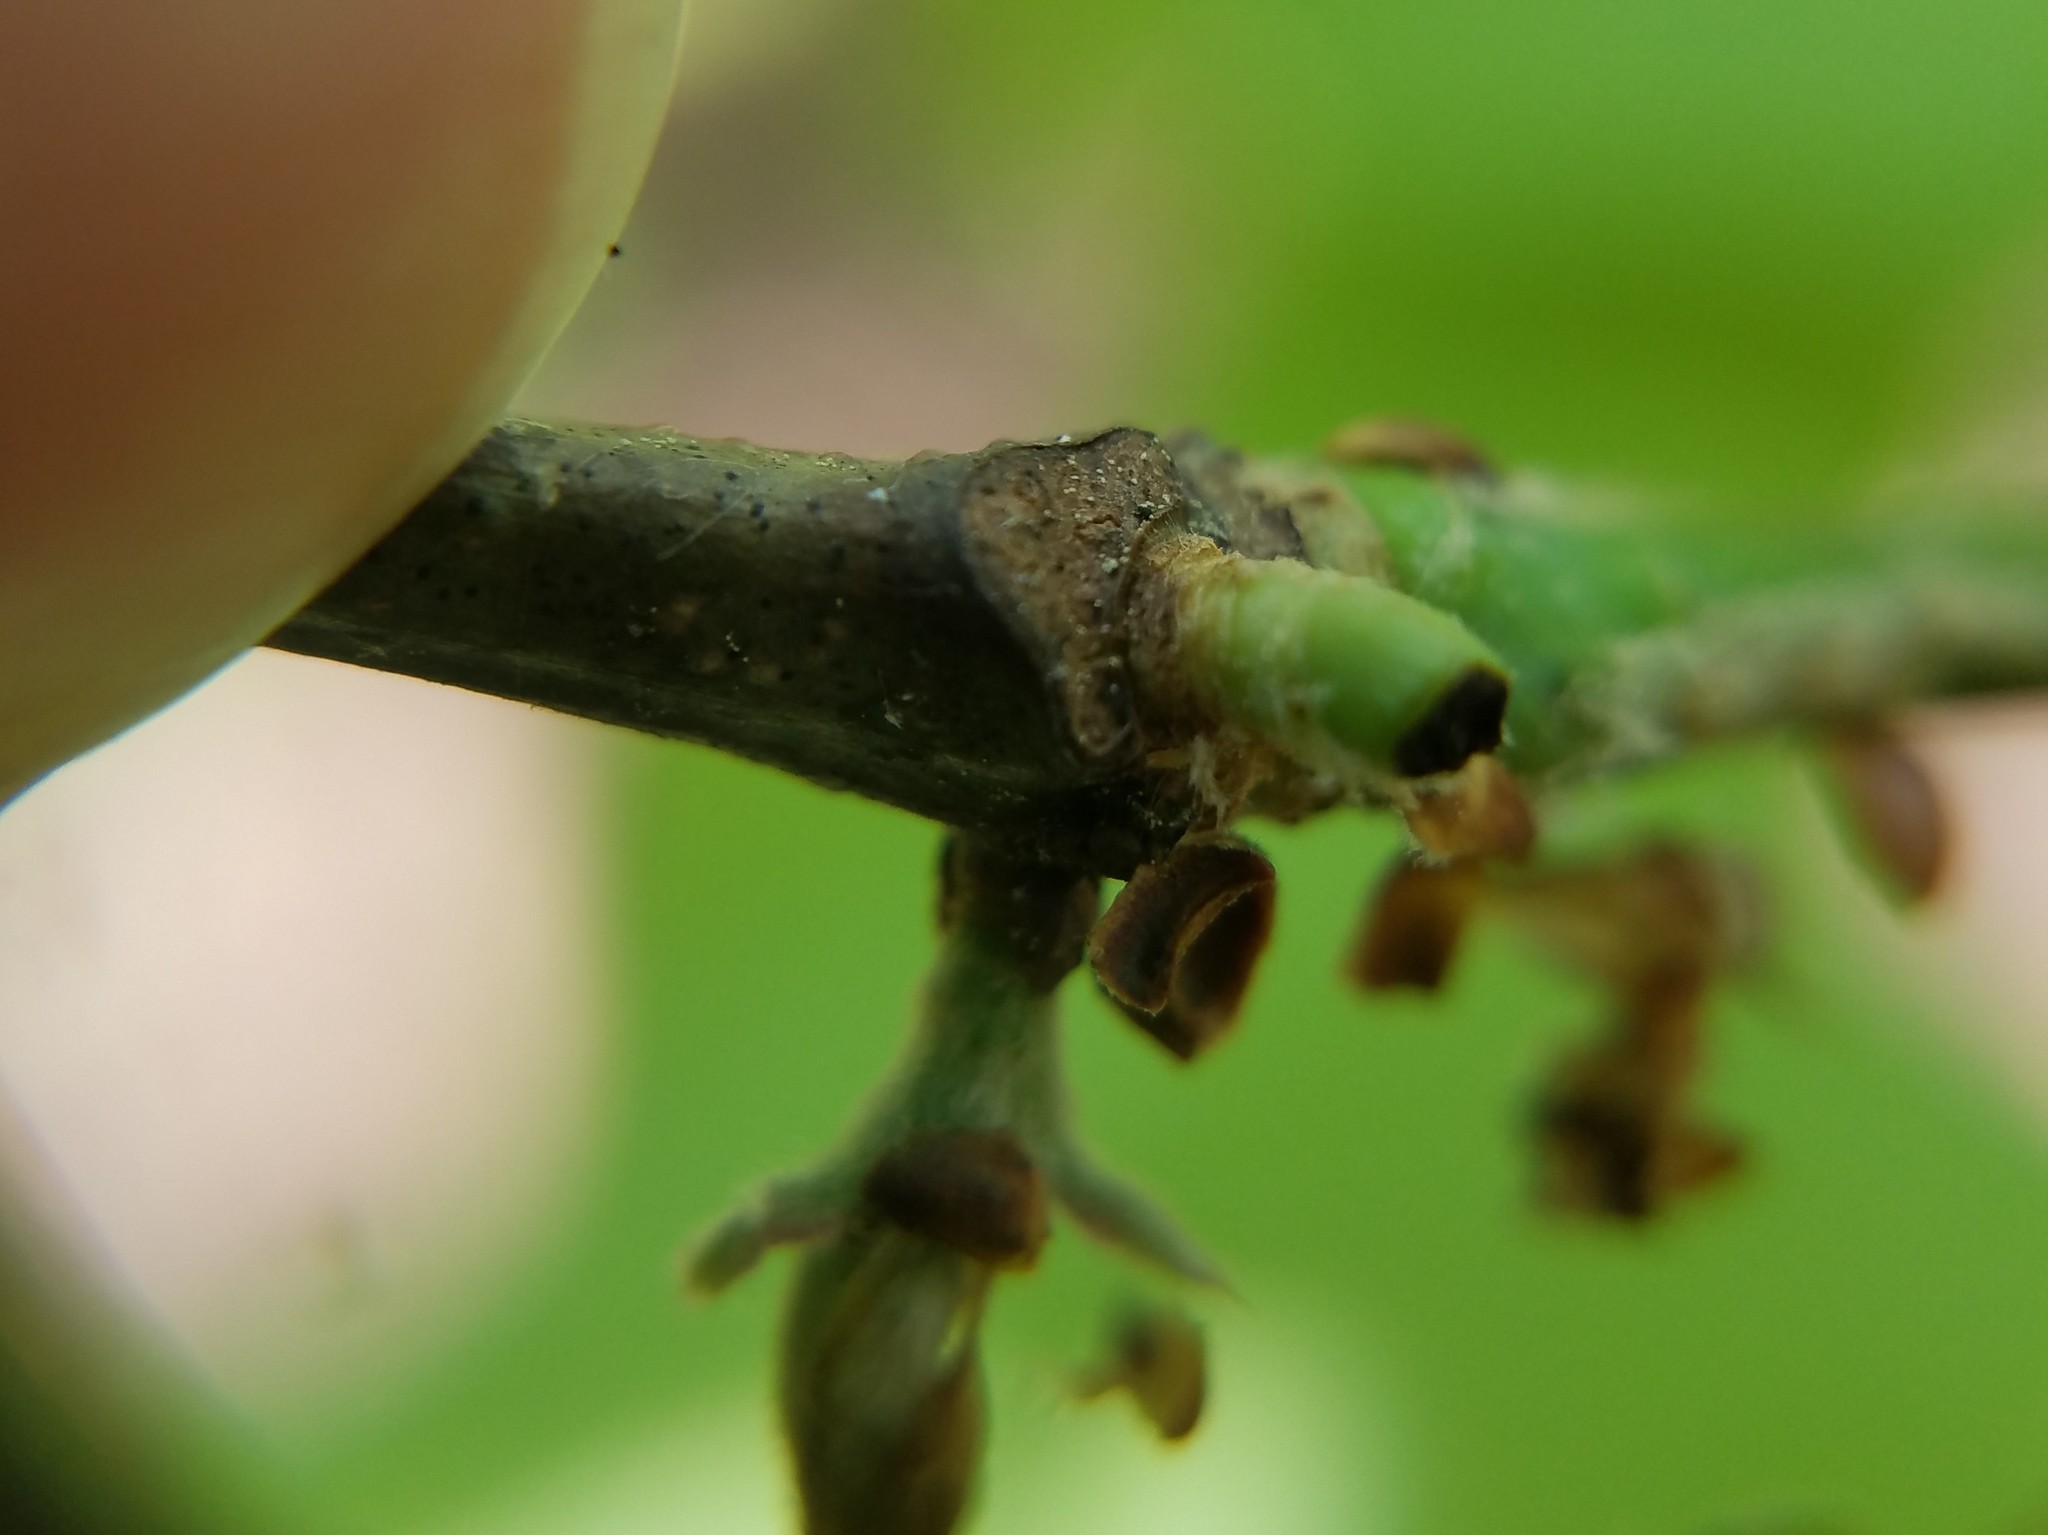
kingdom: Plantae
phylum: Tracheophyta
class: Magnoliopsida
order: Fagales
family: Fagaceae
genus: Quercus
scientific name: Quercus alba
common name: White oak
